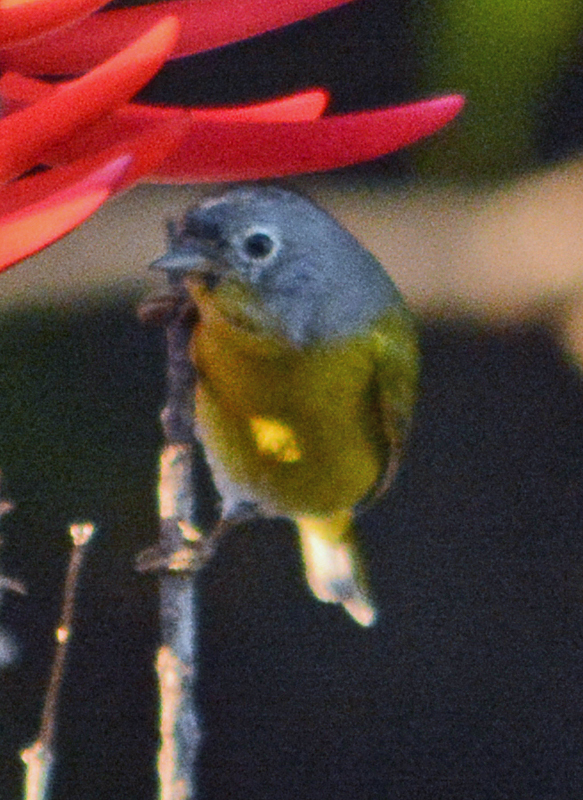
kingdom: Animalia
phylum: Chordata
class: Aves
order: Passeriformes
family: Parulidae
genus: Leiothlypis
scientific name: Leiothlypis ruficapilla
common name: Nashville warbler
